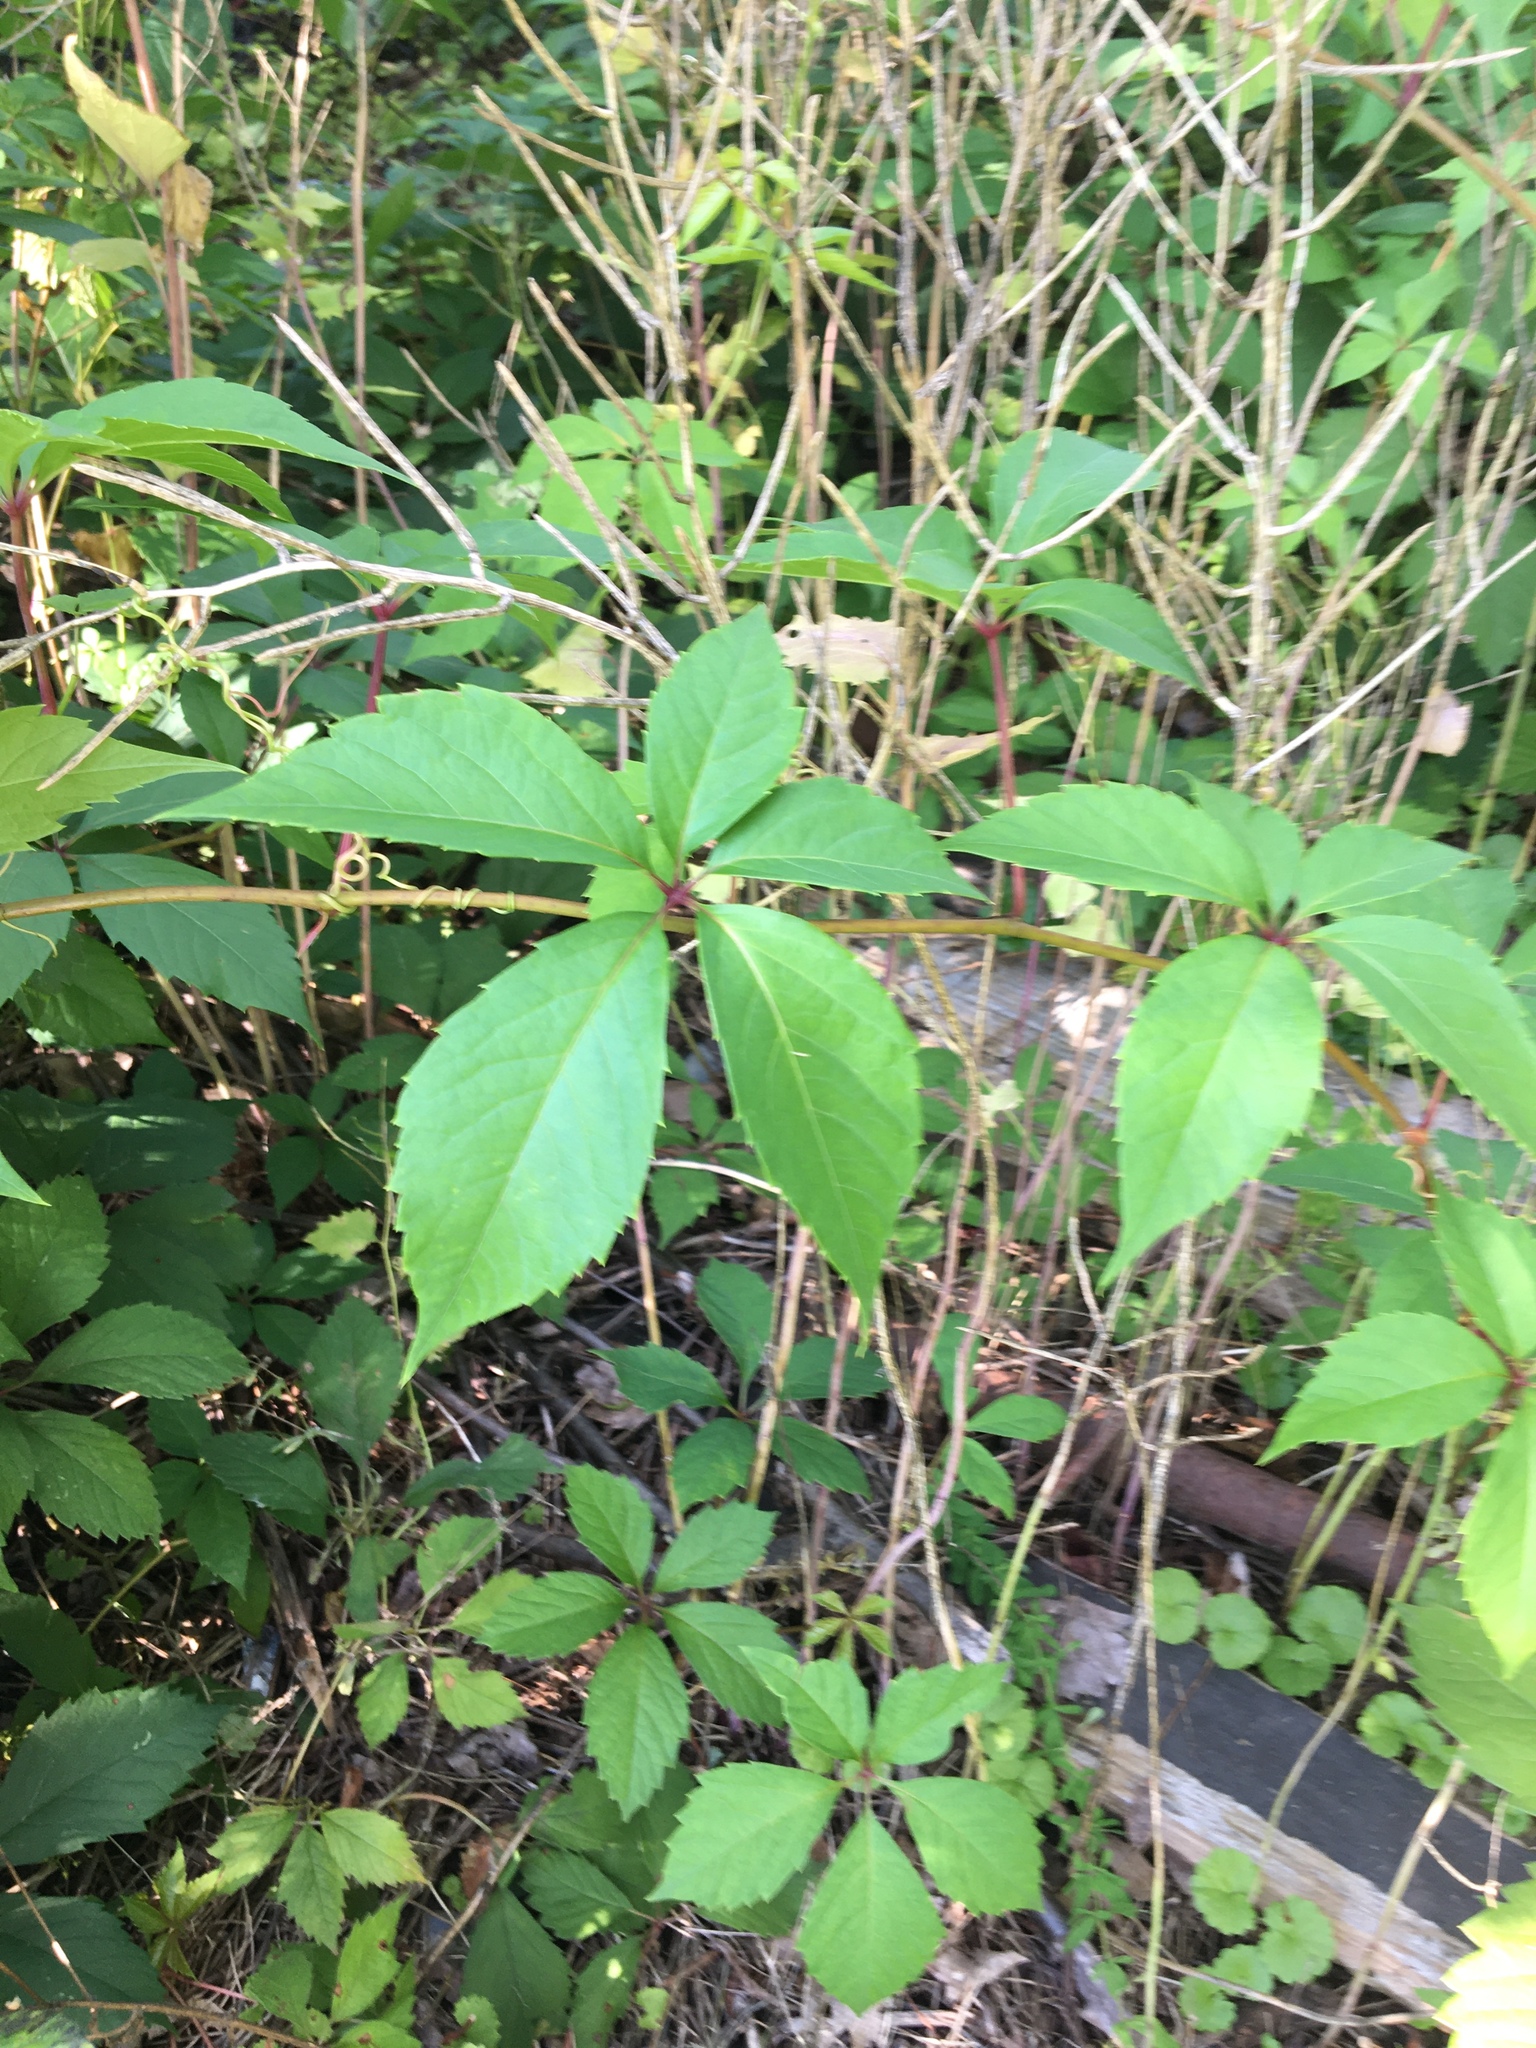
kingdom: Plantae
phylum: Tracheophyta
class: Magnoliopsida
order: Vitales
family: Vitaceae
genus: Parthenocissus
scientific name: Parthenocissus quinquefolia
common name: Virginia-creeper
